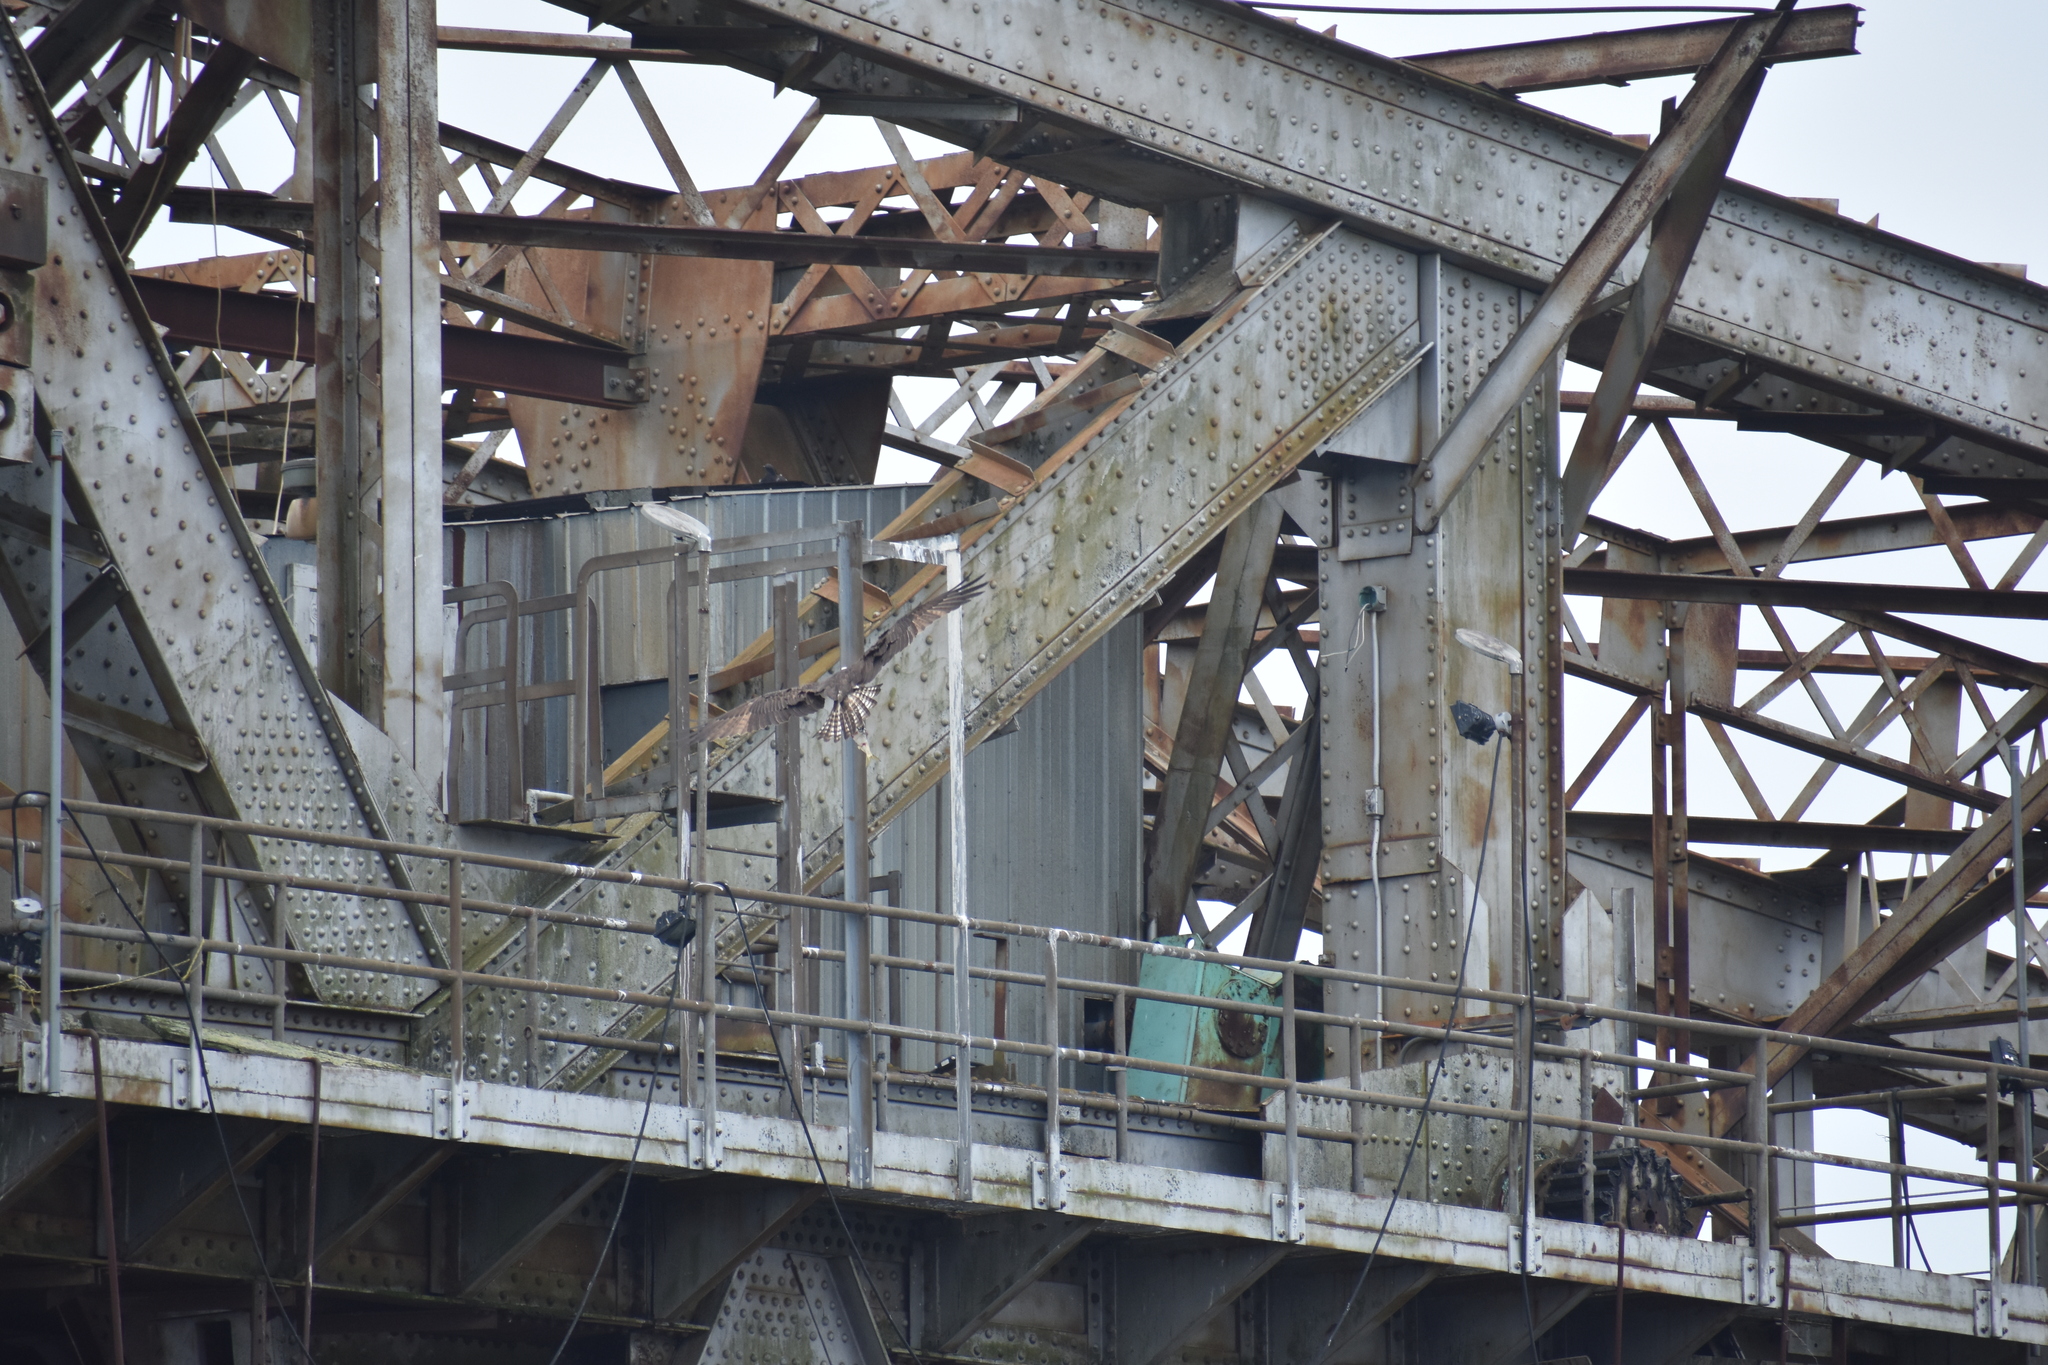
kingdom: Animalia
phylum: Chordata
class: Aves
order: Accipitriformes
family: Pandionidae
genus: Pandion
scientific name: Pandion haliaetus
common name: Osprey
